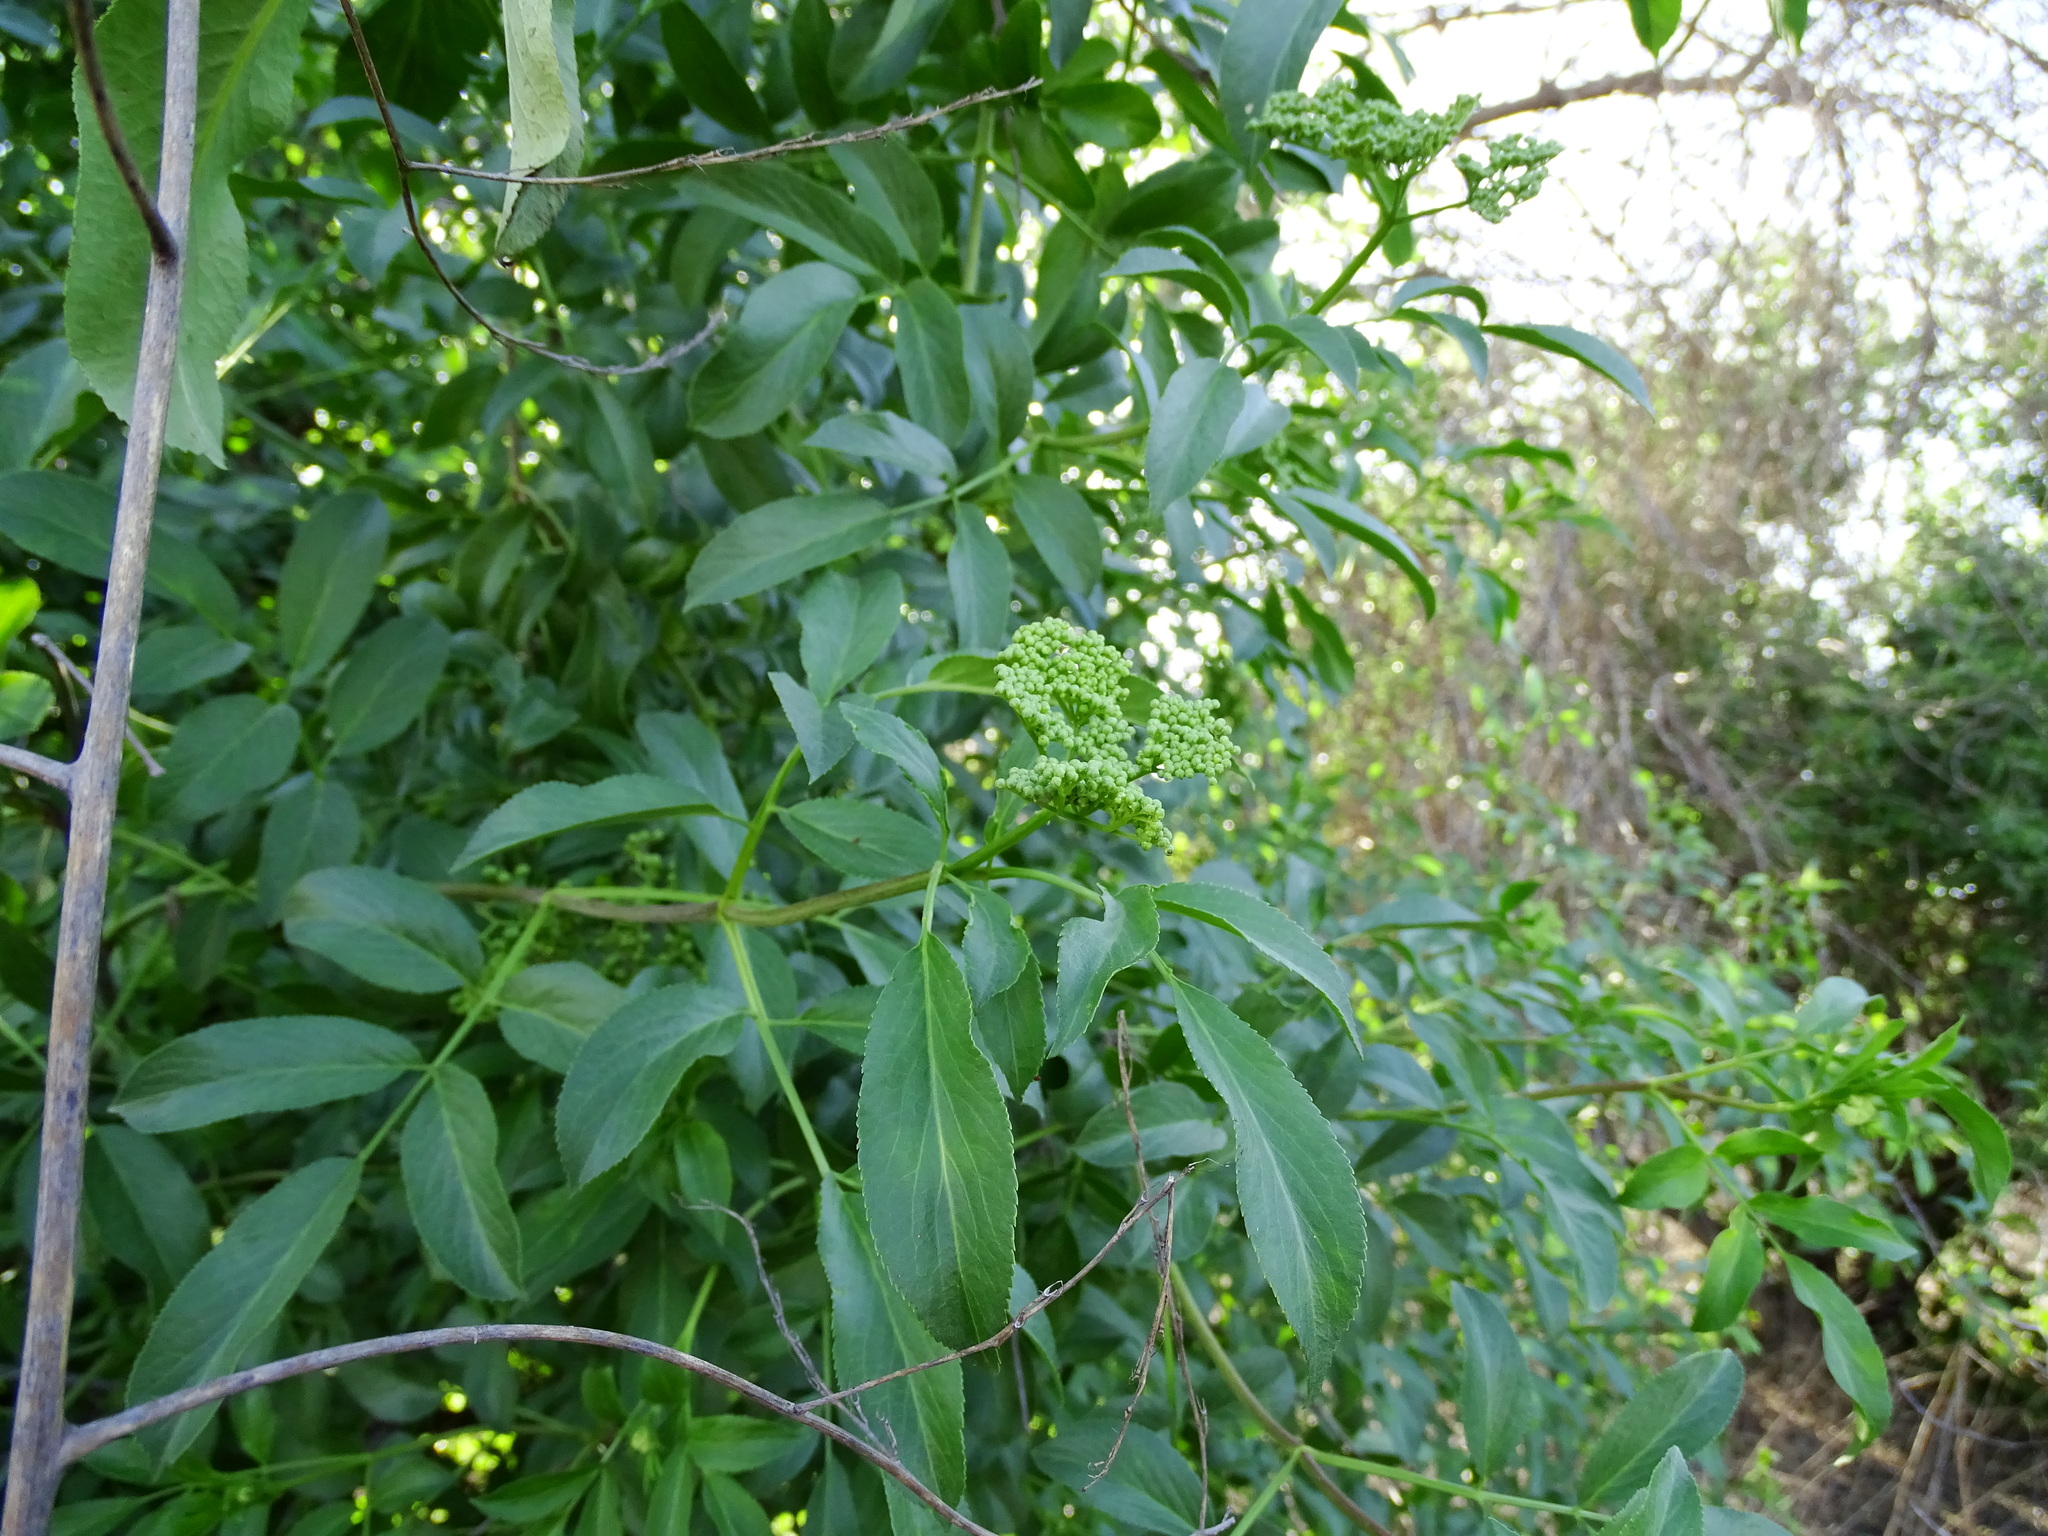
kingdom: Plantae
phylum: Tracheophyta
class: Magnoliopsida
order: Dipsacales
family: Viburnaceae
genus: Sambucus
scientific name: Sambucus cerulea
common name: Blue elder
